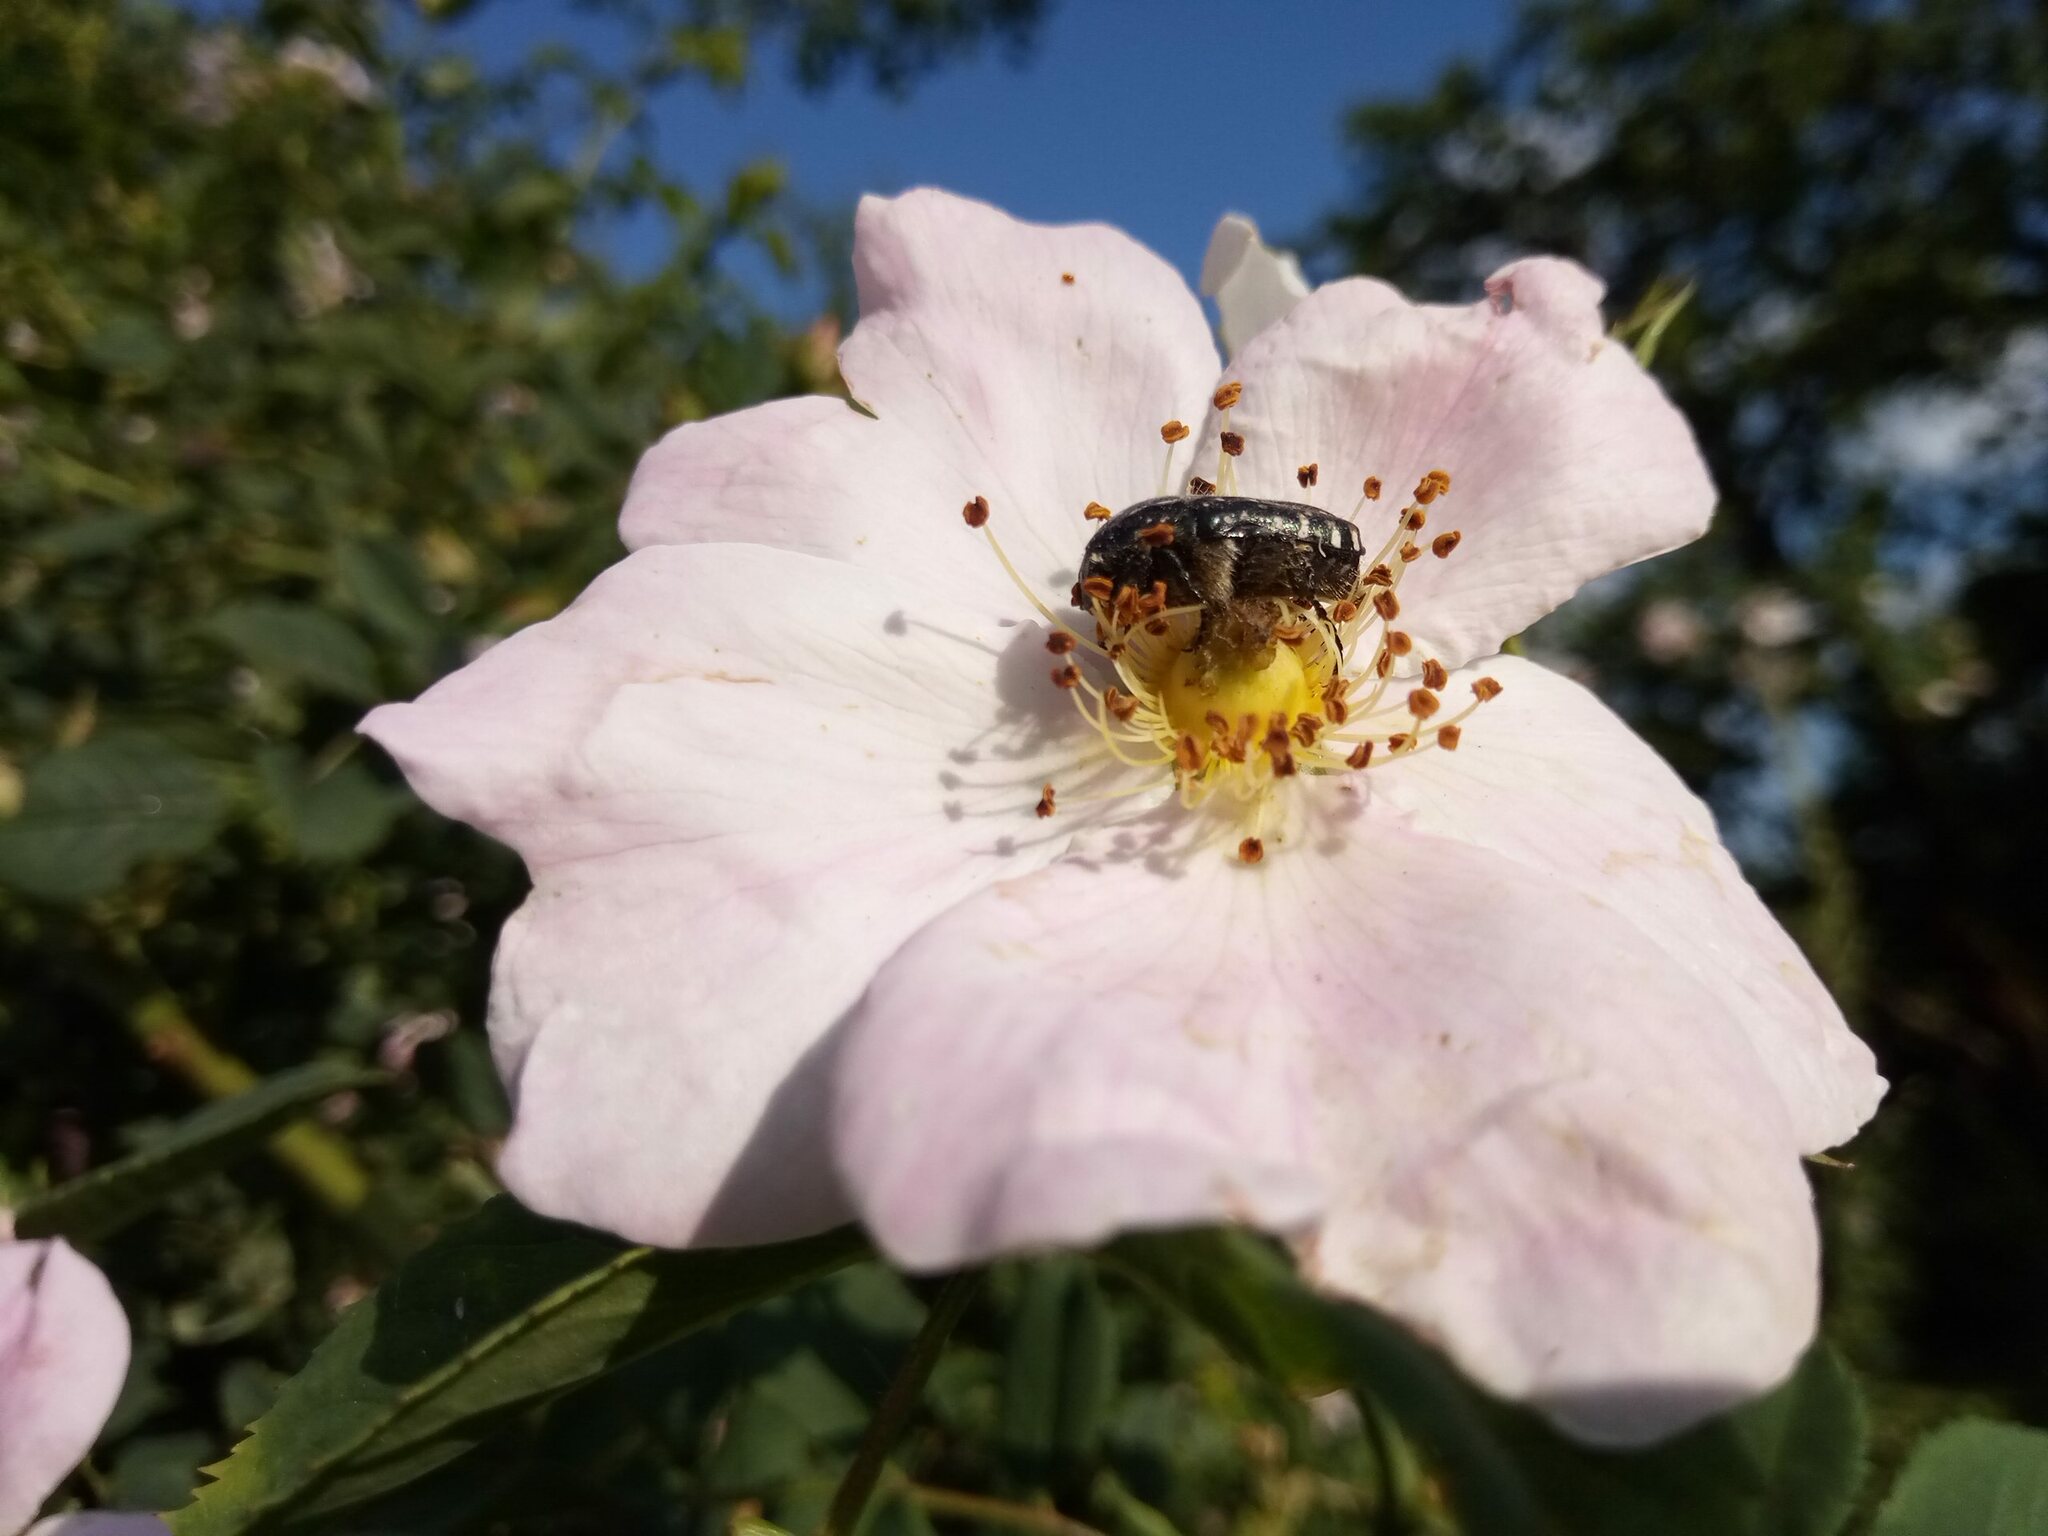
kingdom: Animalia
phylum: Arthropoda
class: Insecta
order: Coleoptera
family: Scarabaeidae
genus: Oxythyrea
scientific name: Oxythyrea funesta
